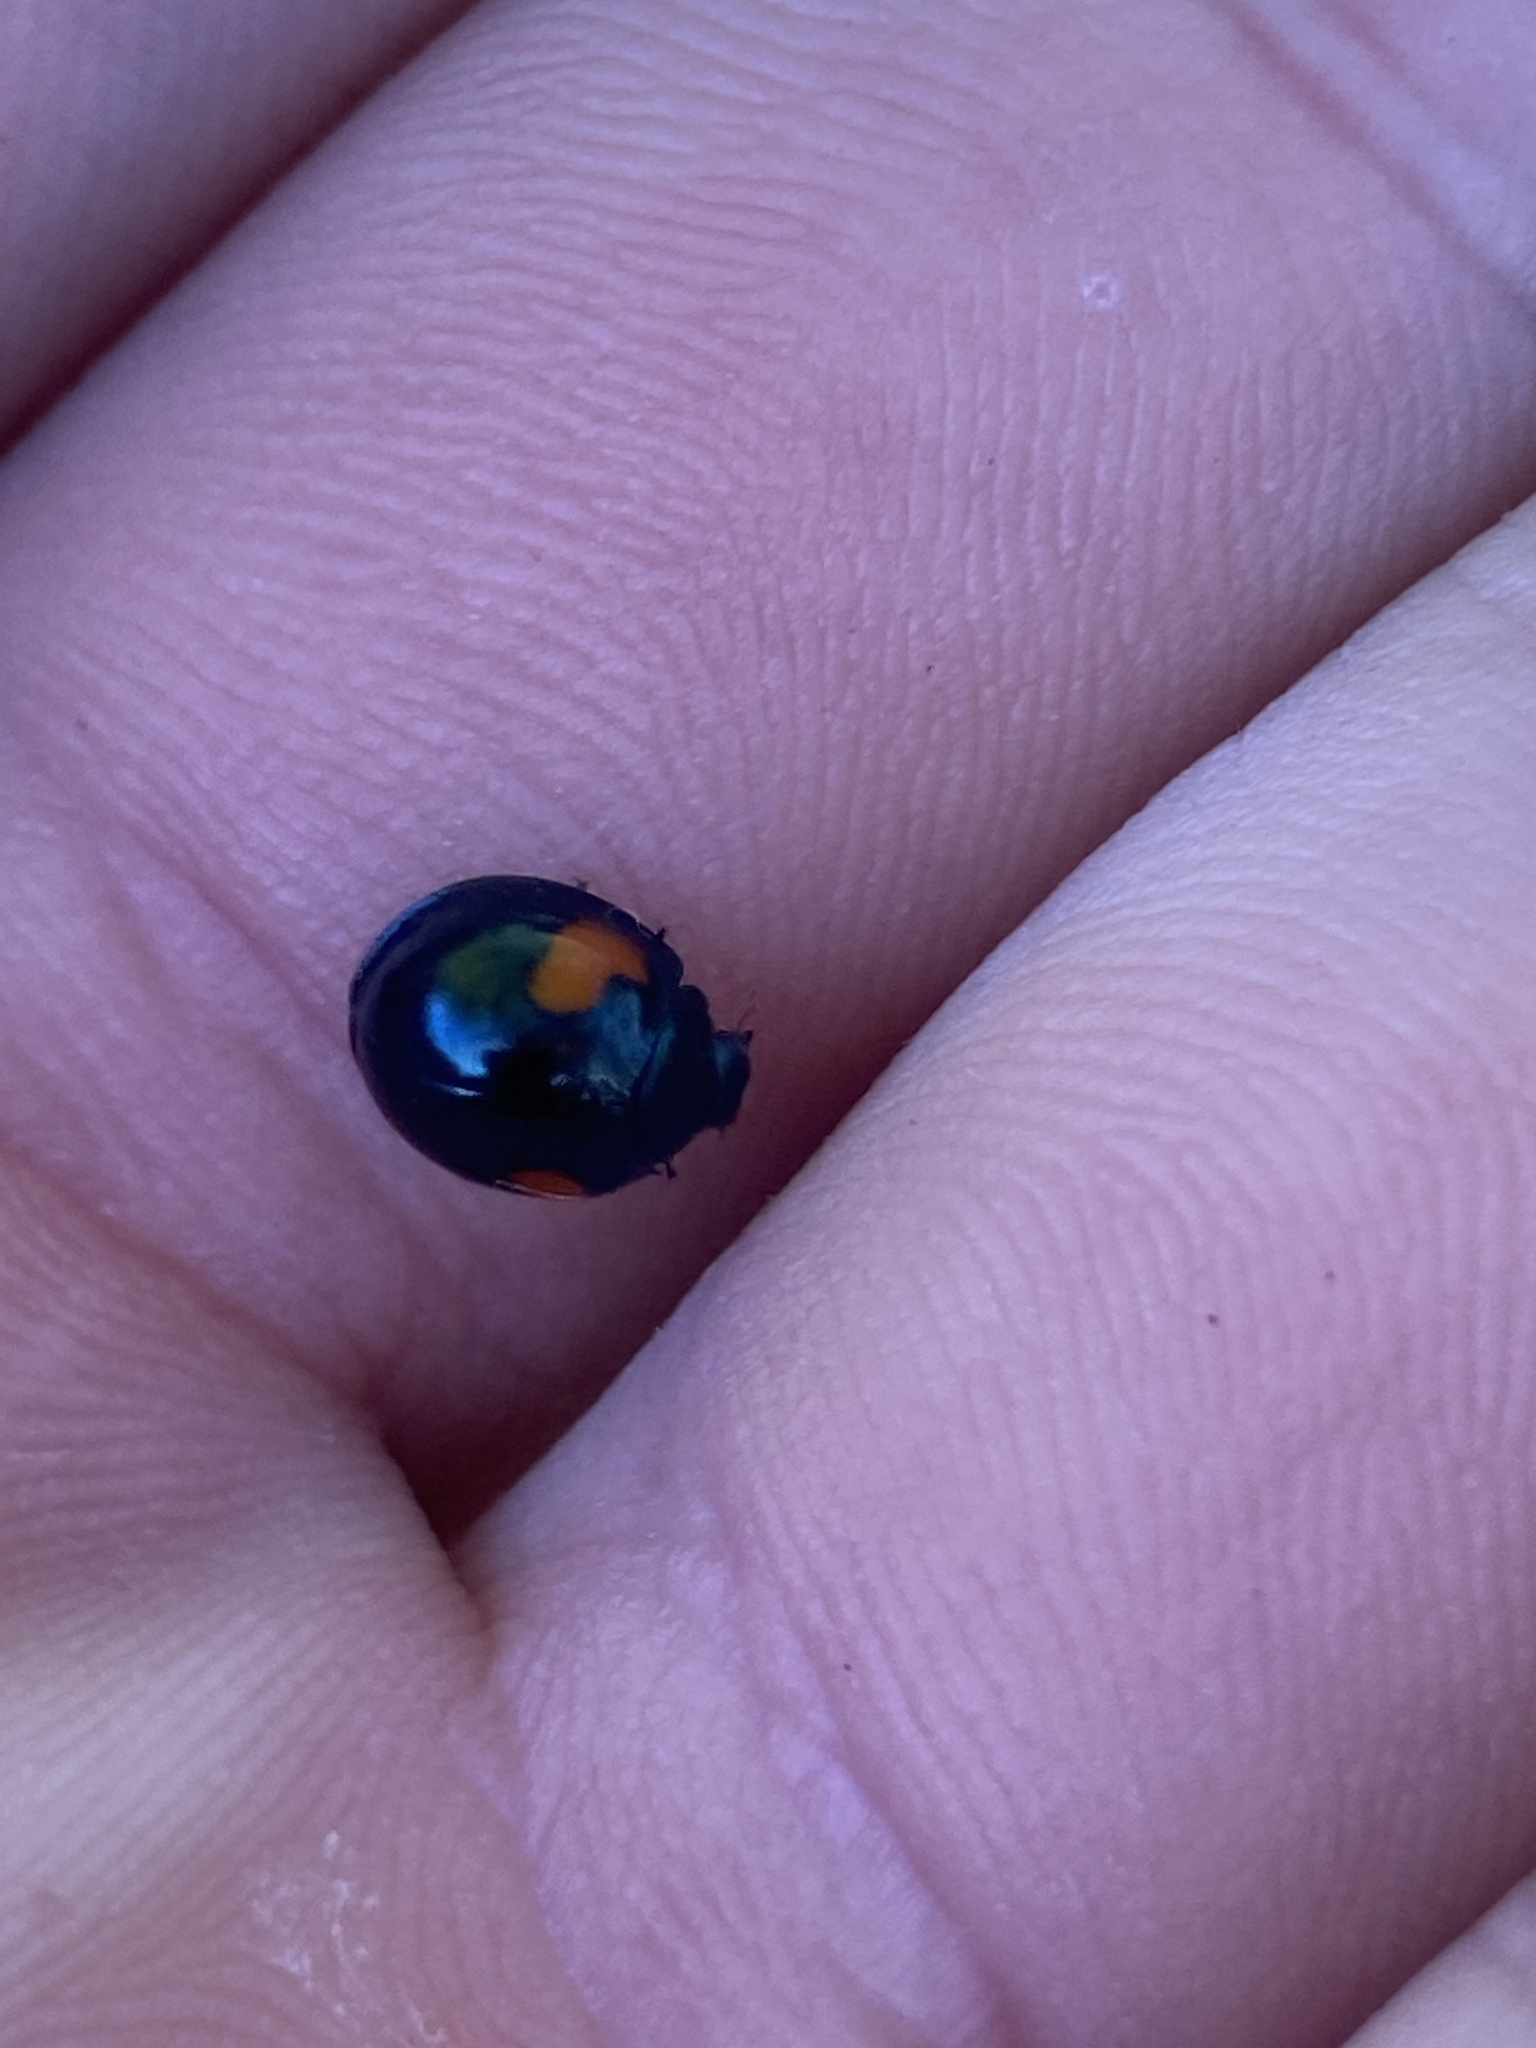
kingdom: Animalia
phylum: Arthropoda
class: Insecta
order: Coleoptera
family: Coccinellidae
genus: Orcus
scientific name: Orcus
